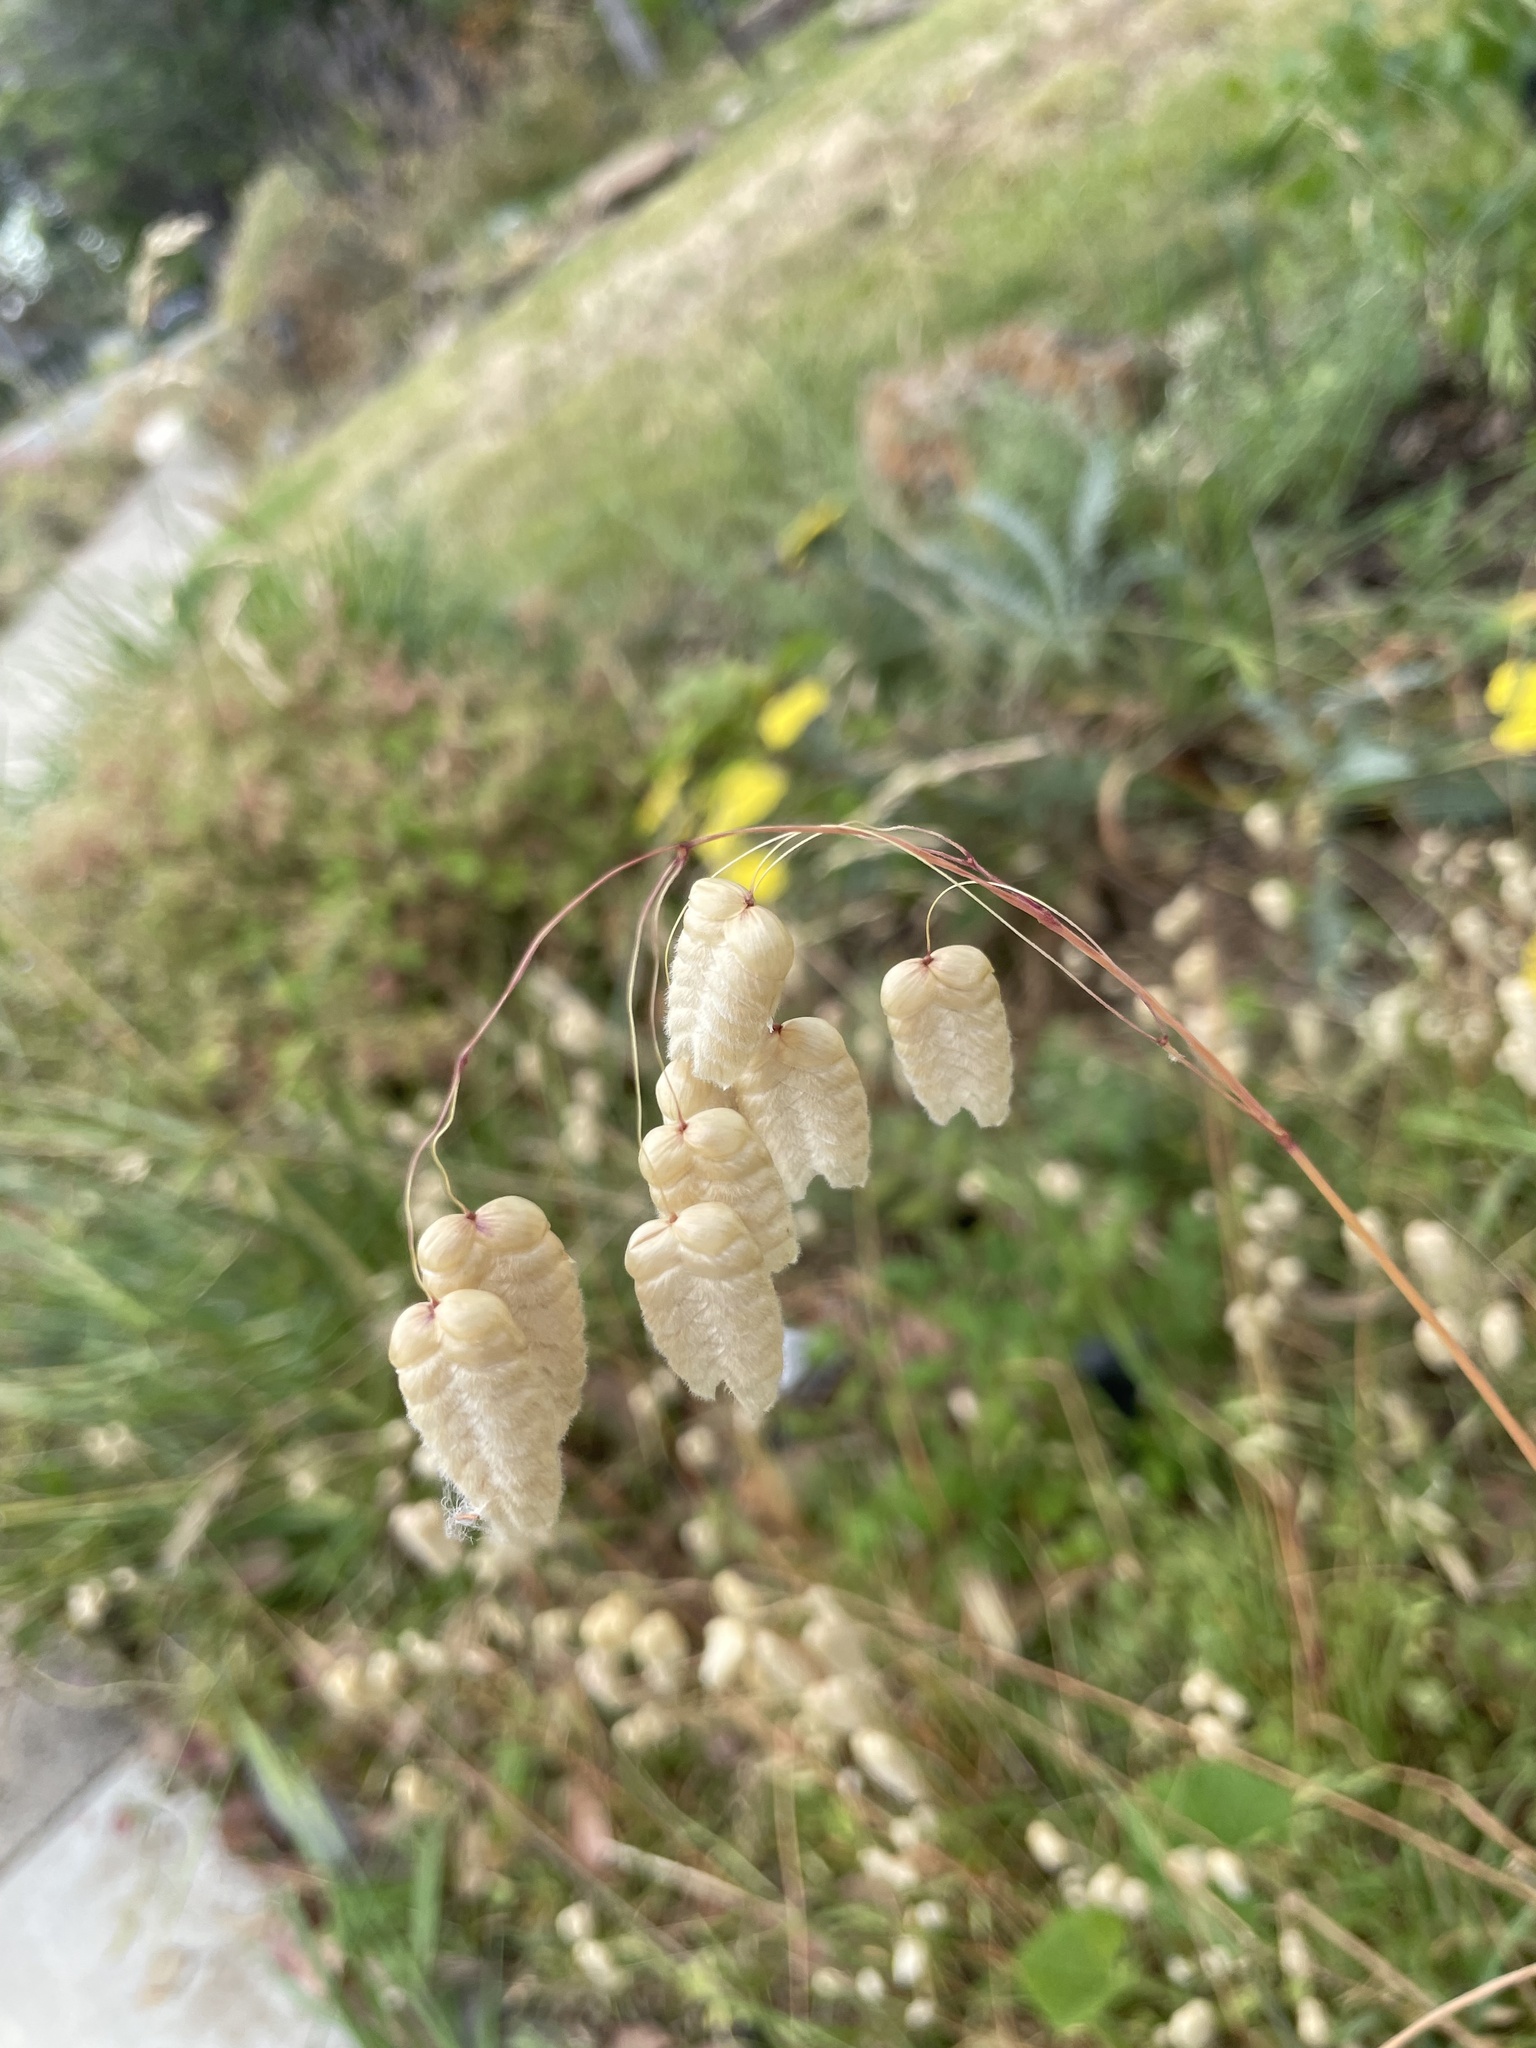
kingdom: Plantae
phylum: Tracheophyta
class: Liliopsida
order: Poales
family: Poaceae
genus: Briza
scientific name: Briza maxima
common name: Big quakinggrass
